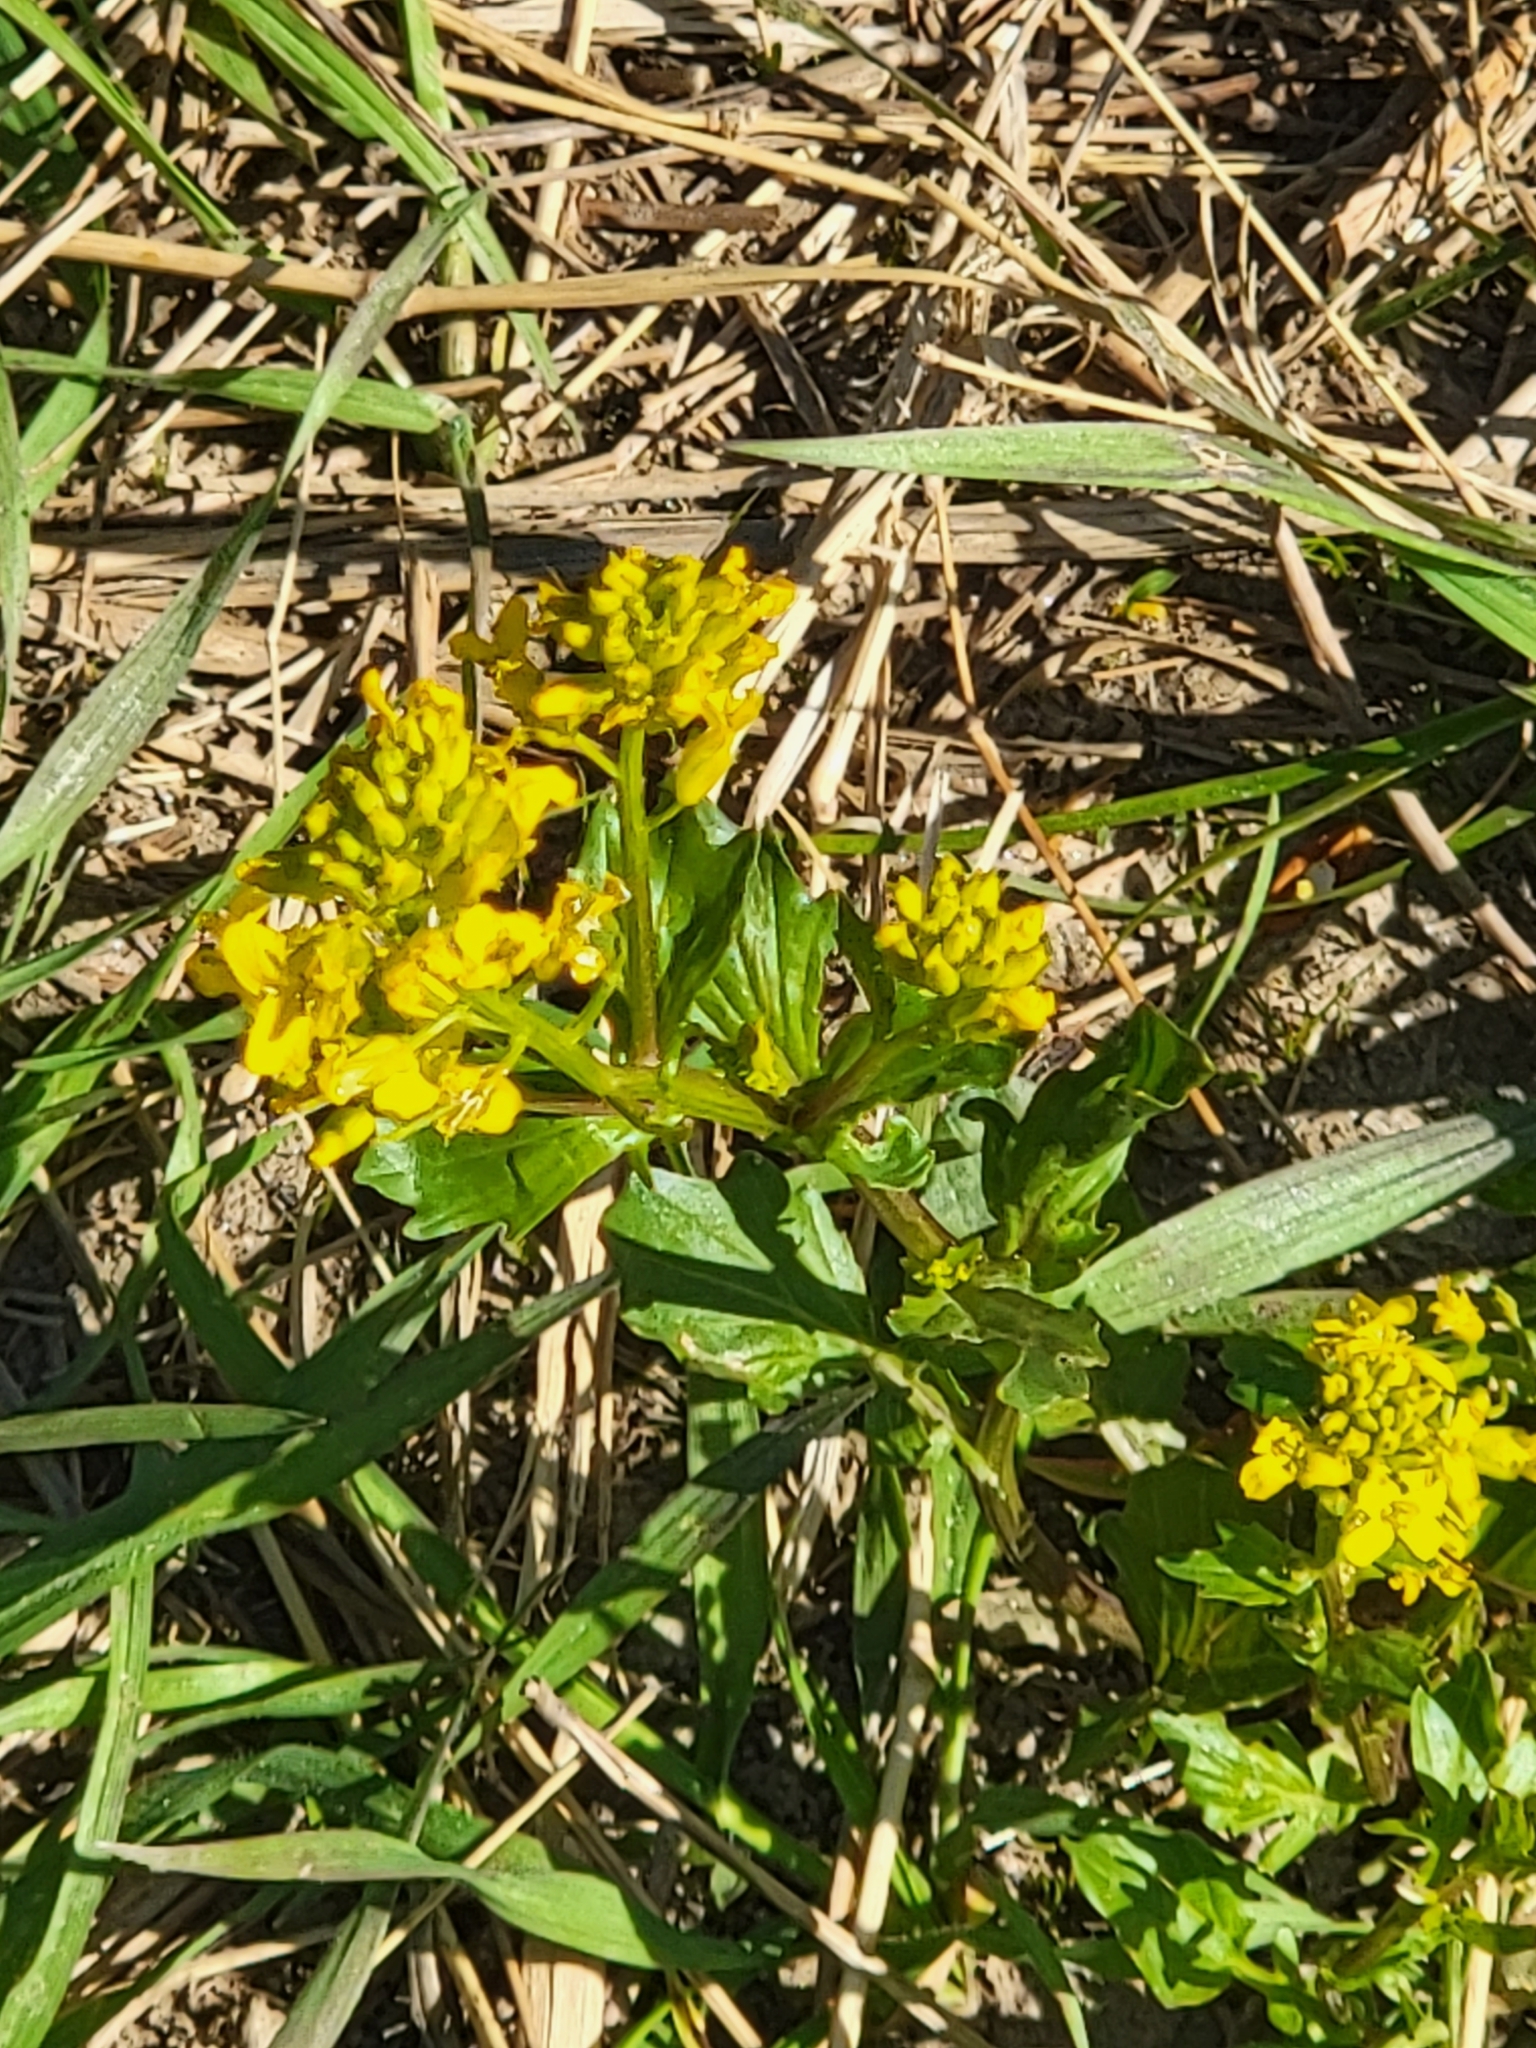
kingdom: Plantae
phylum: Tracheophyta
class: Magnoliopsida
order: Brassicales
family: Brassicaceae
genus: Barbarea
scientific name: Barbarea vulgaris
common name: Cressy-greens
